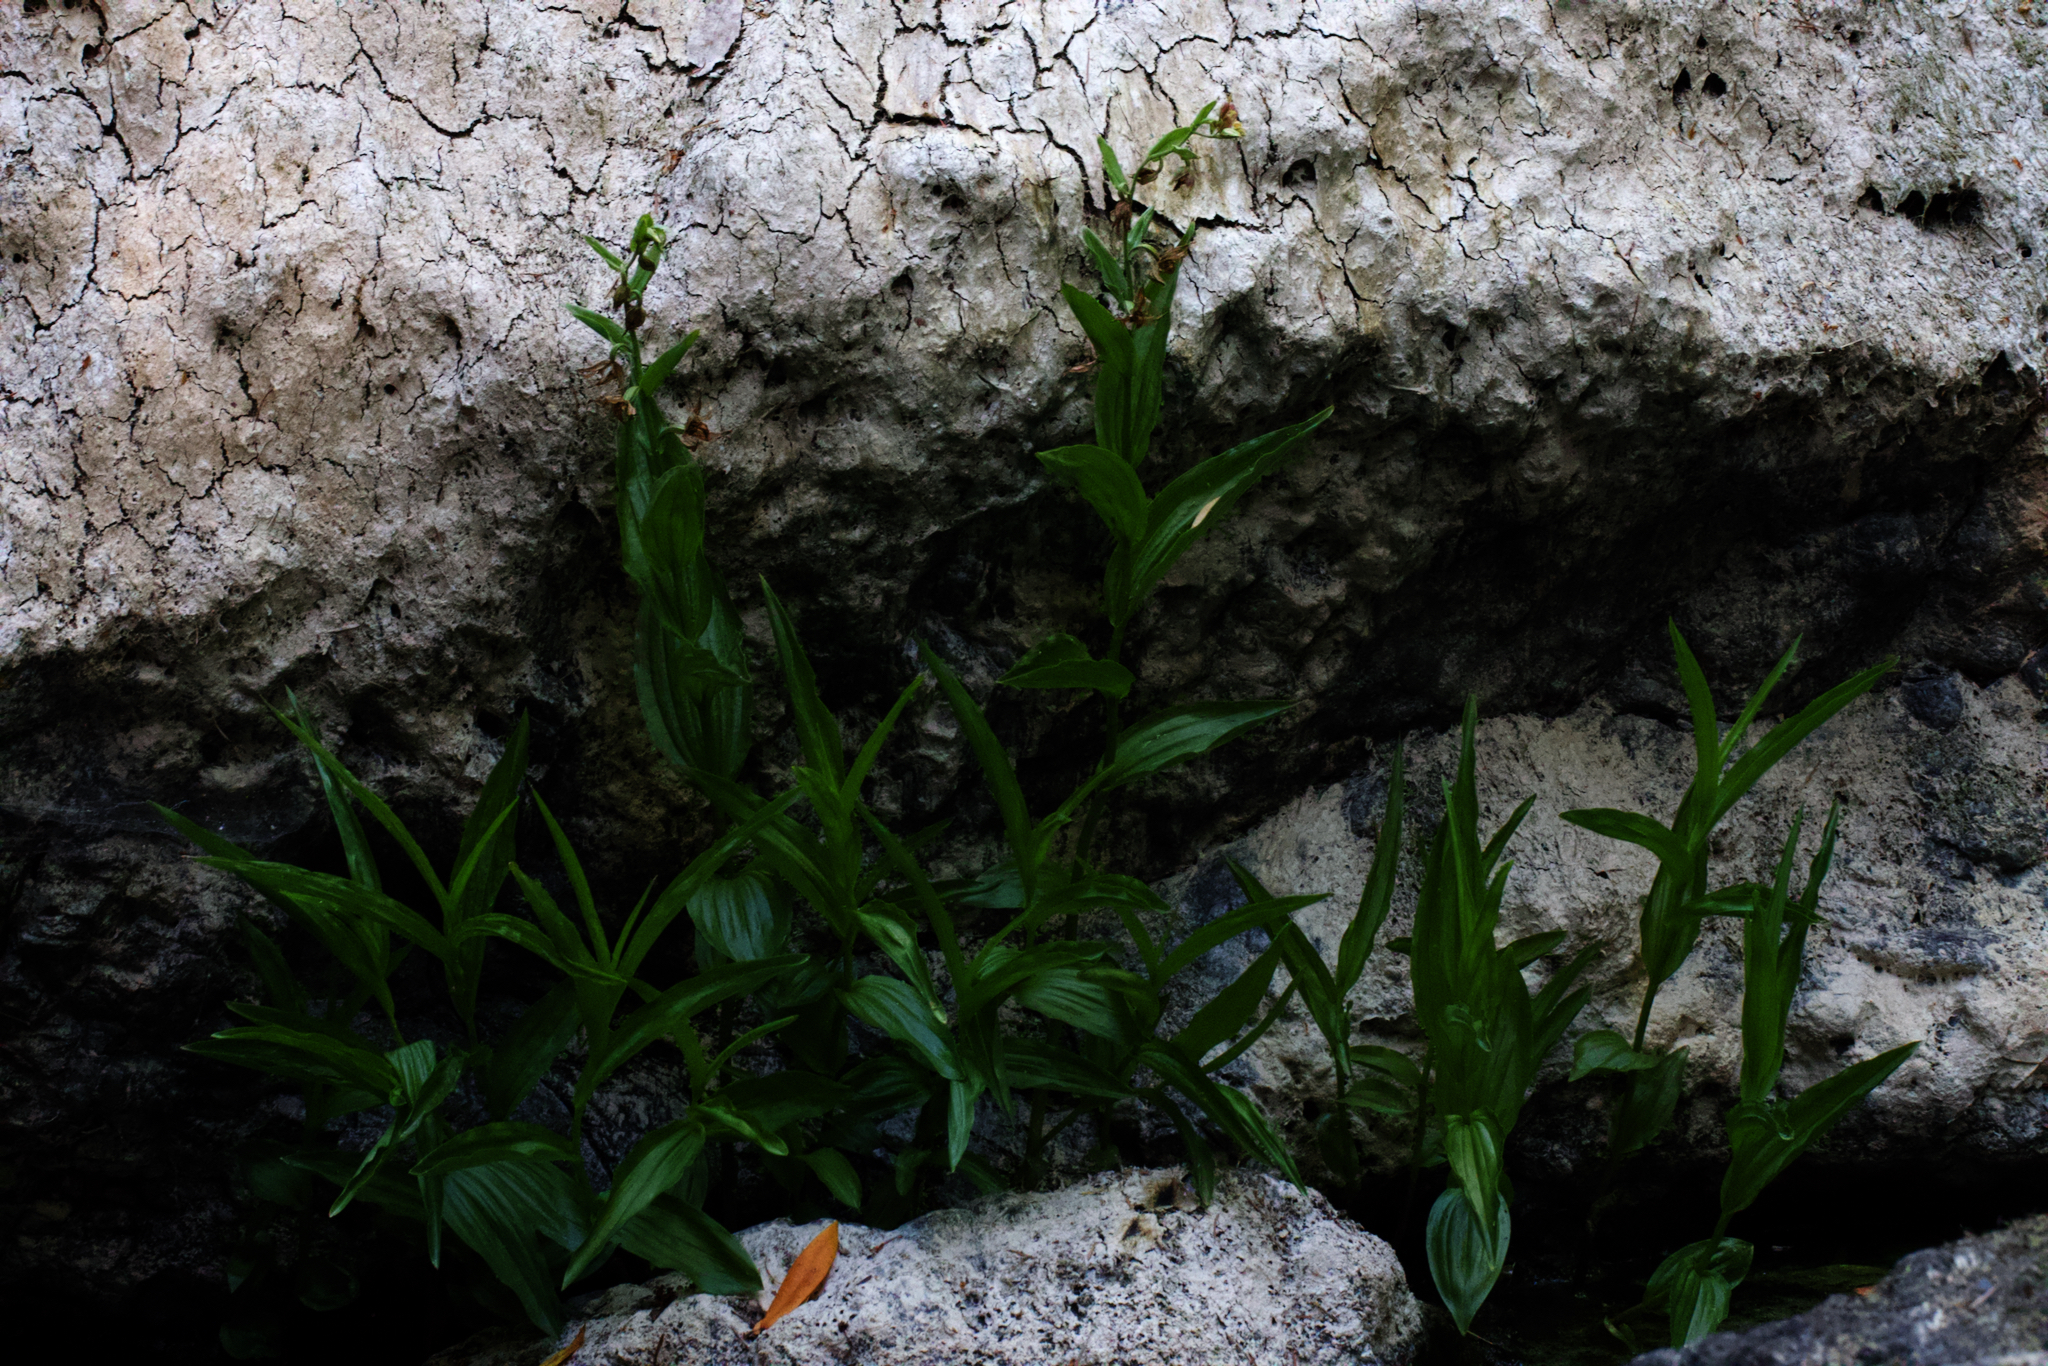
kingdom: Plantae
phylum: Tracheophyta
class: Liliopsida
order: Asparagales
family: Orchidaceae
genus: Epipactis
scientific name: Epipactis gigantea
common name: Chatterbox
